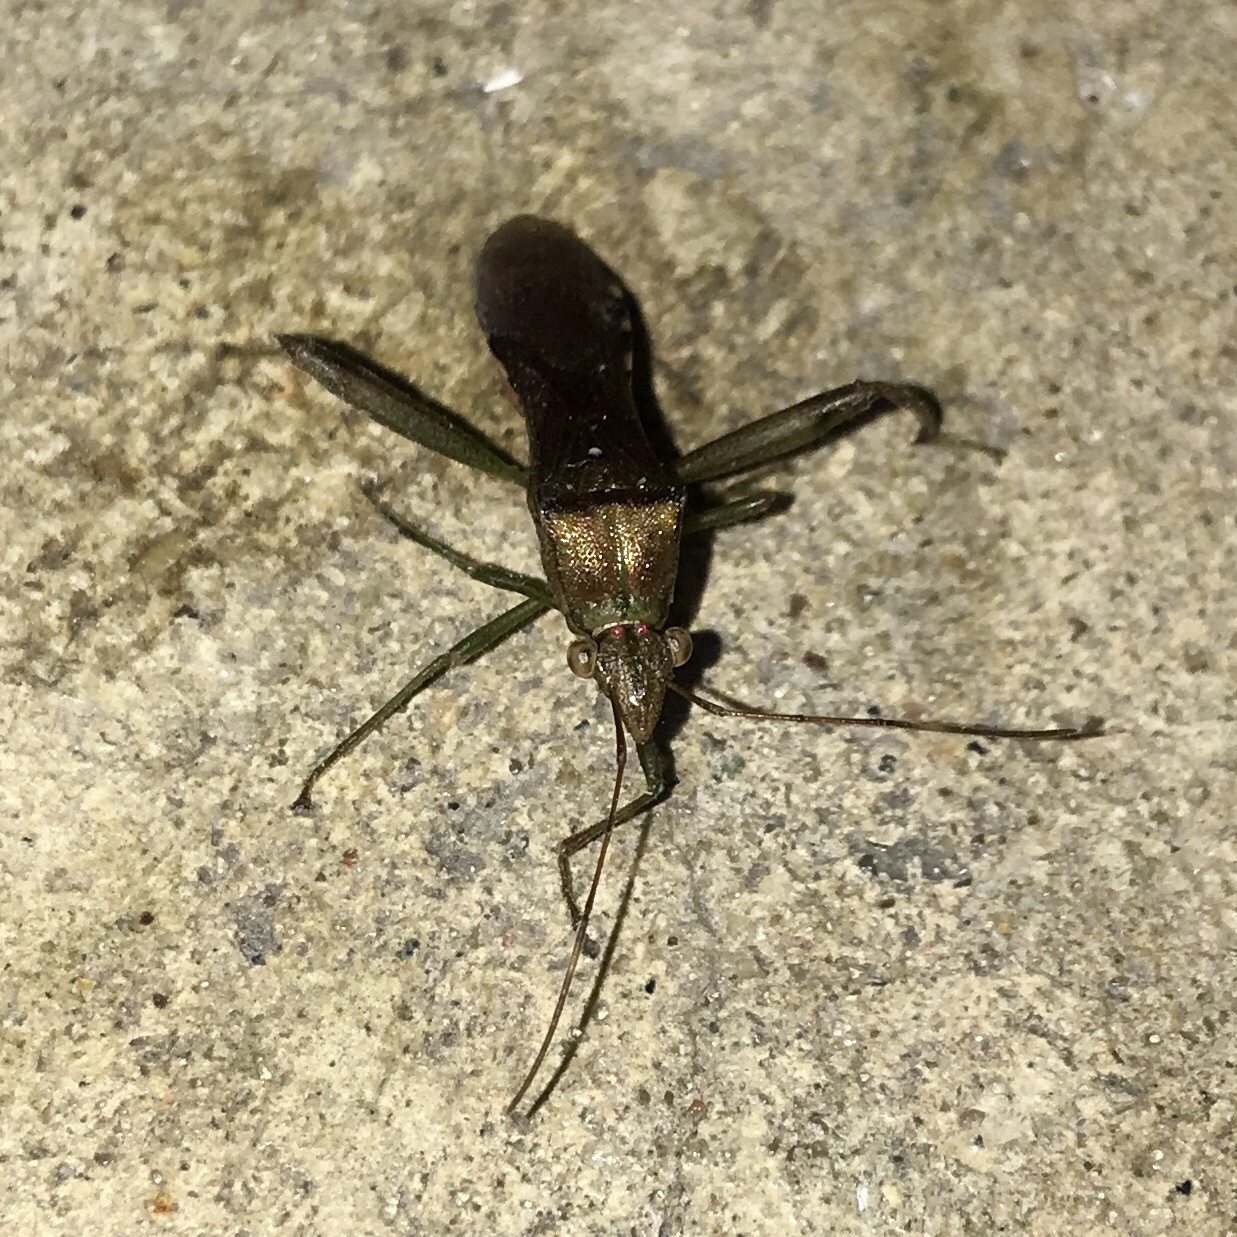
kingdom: Animalia
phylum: Arthropoda
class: Insecta
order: Hemiptera
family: Alydidae
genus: Hyalymenus
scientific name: Hyalymenus tarsatus
